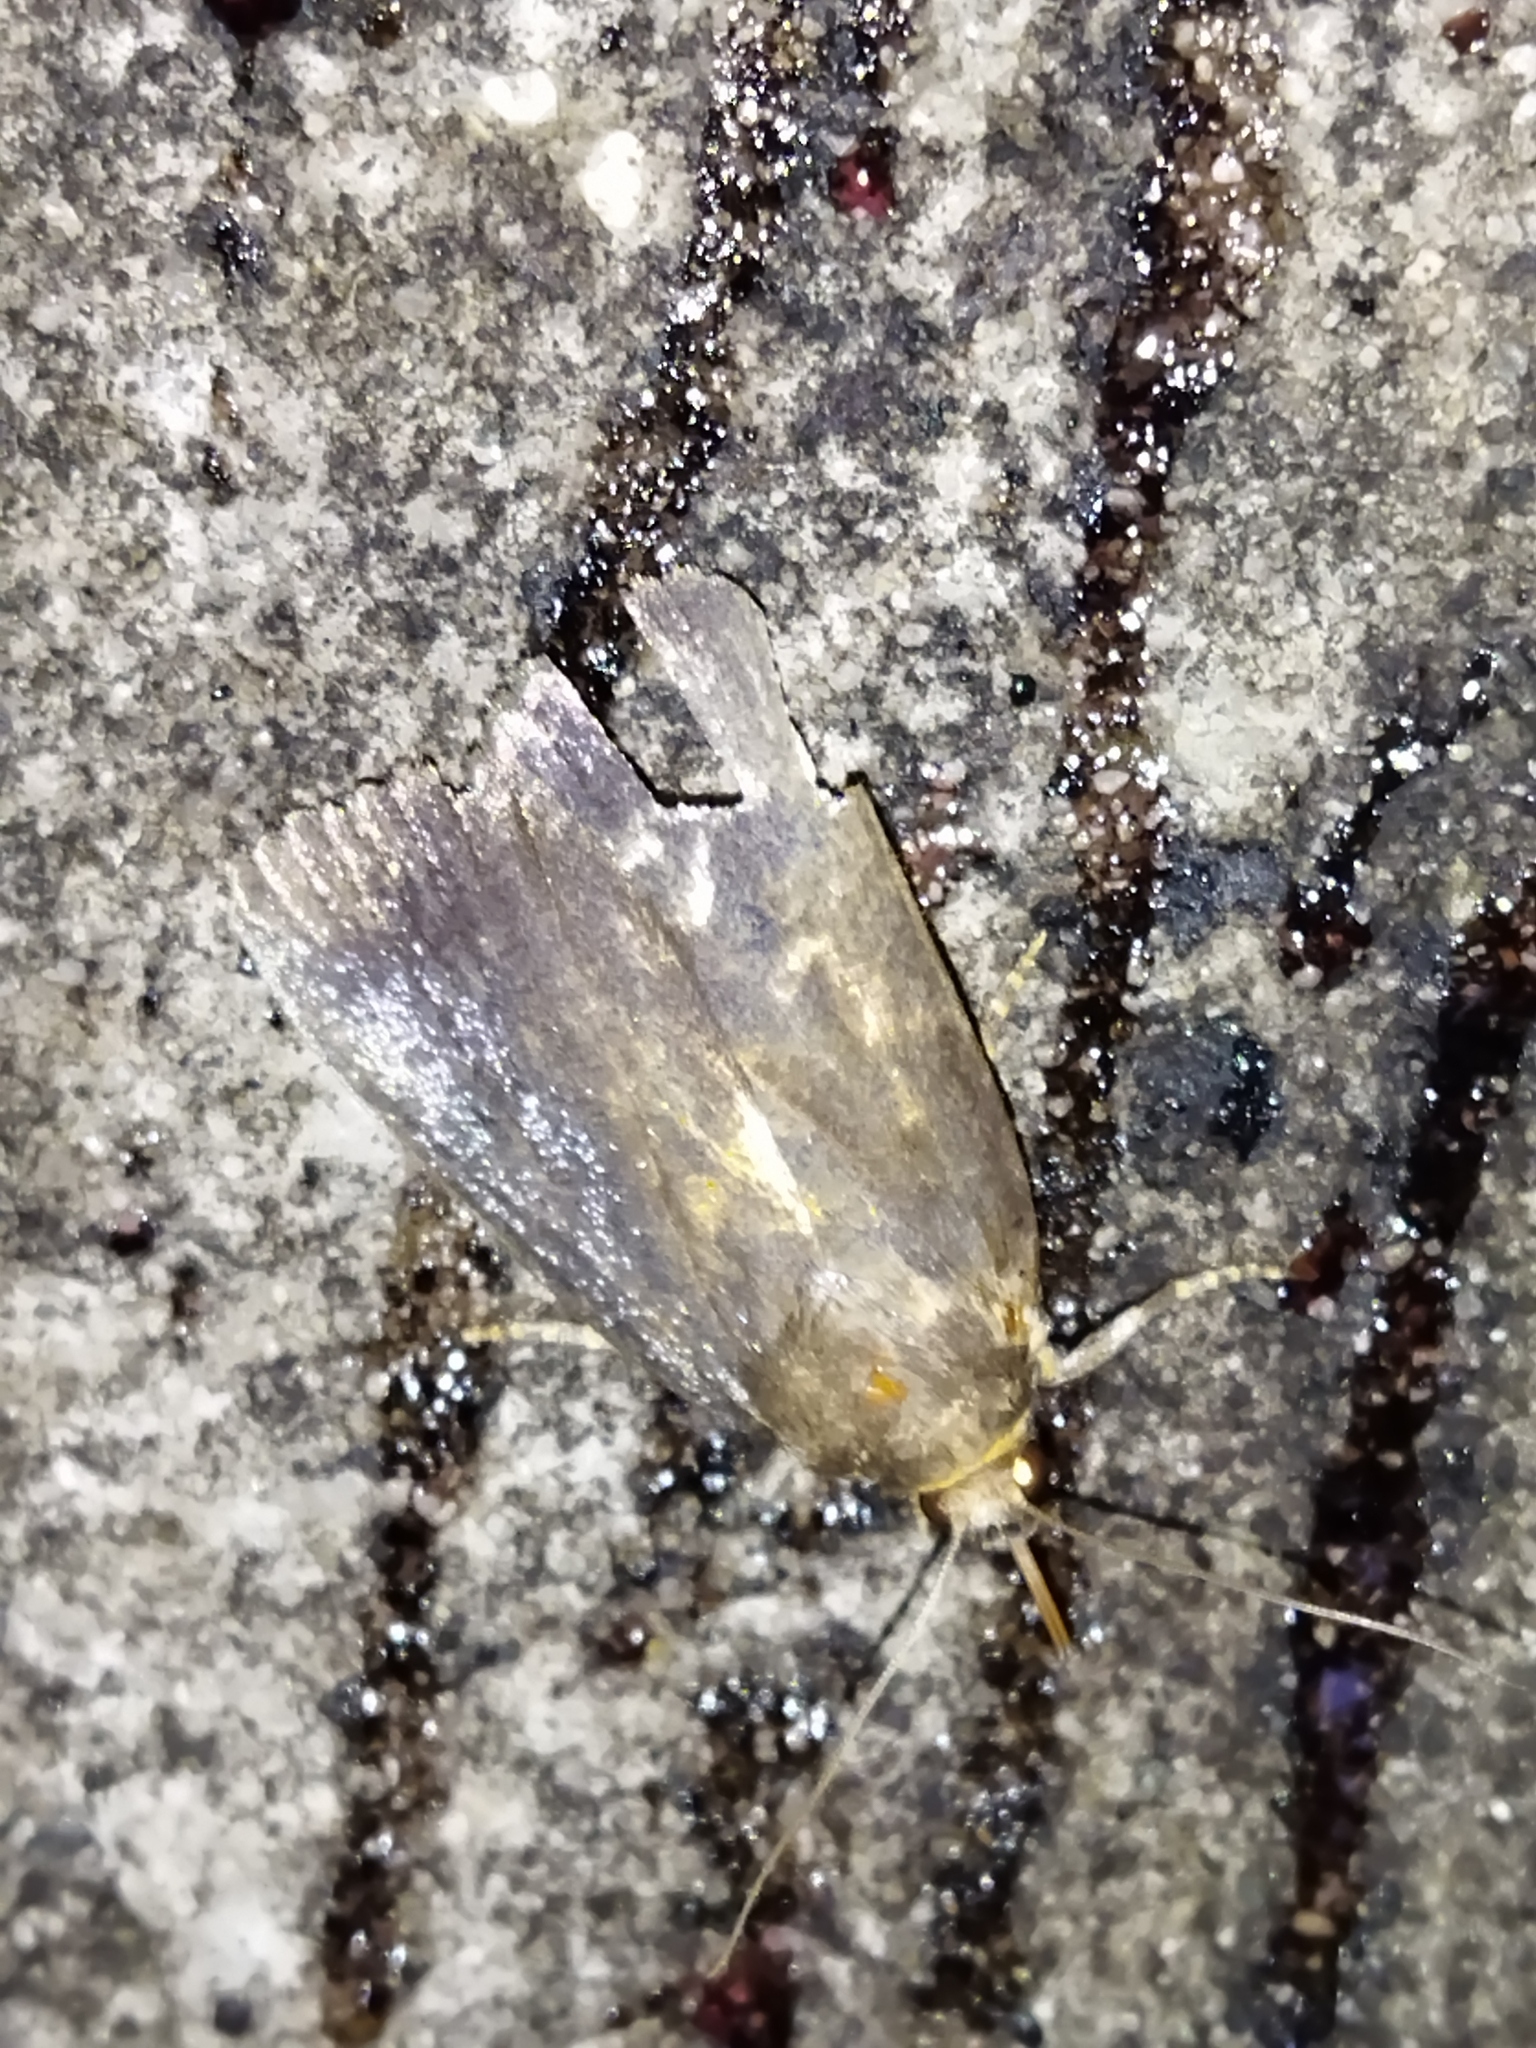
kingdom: Animalia
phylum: Arthropoda
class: Insecta
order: Lepidoptera
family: Noctuidae
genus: Amphipyra
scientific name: Amphipyra livida
